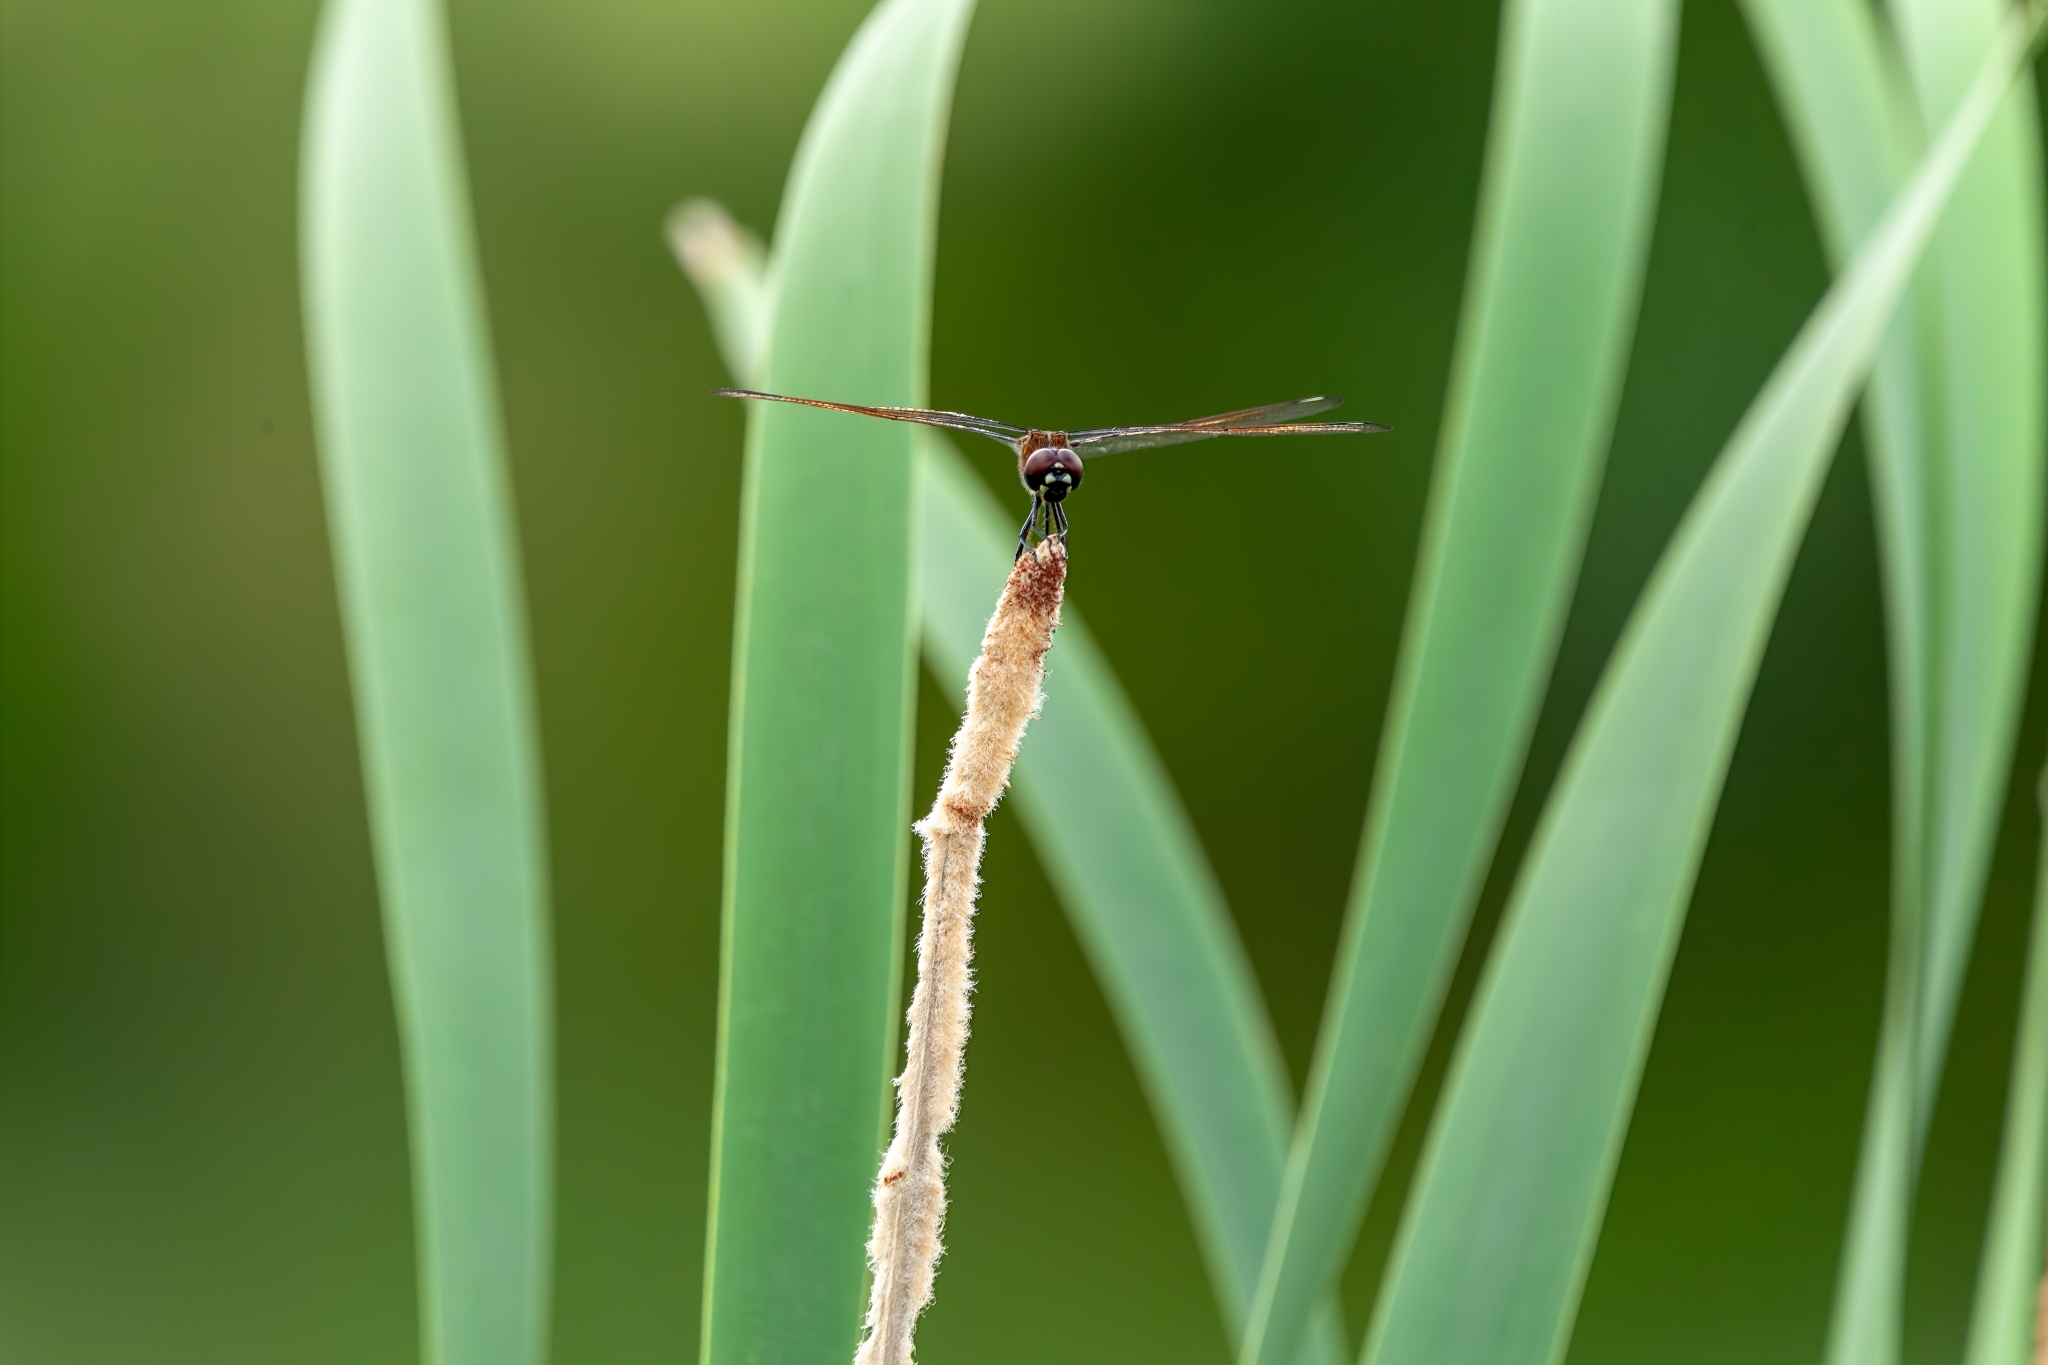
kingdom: Animalia
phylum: Arthropoda
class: Insecta
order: Odonata
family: Libellulidae
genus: Brachymesia
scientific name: Brachymesia gravida
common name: Four-spotted pennant
